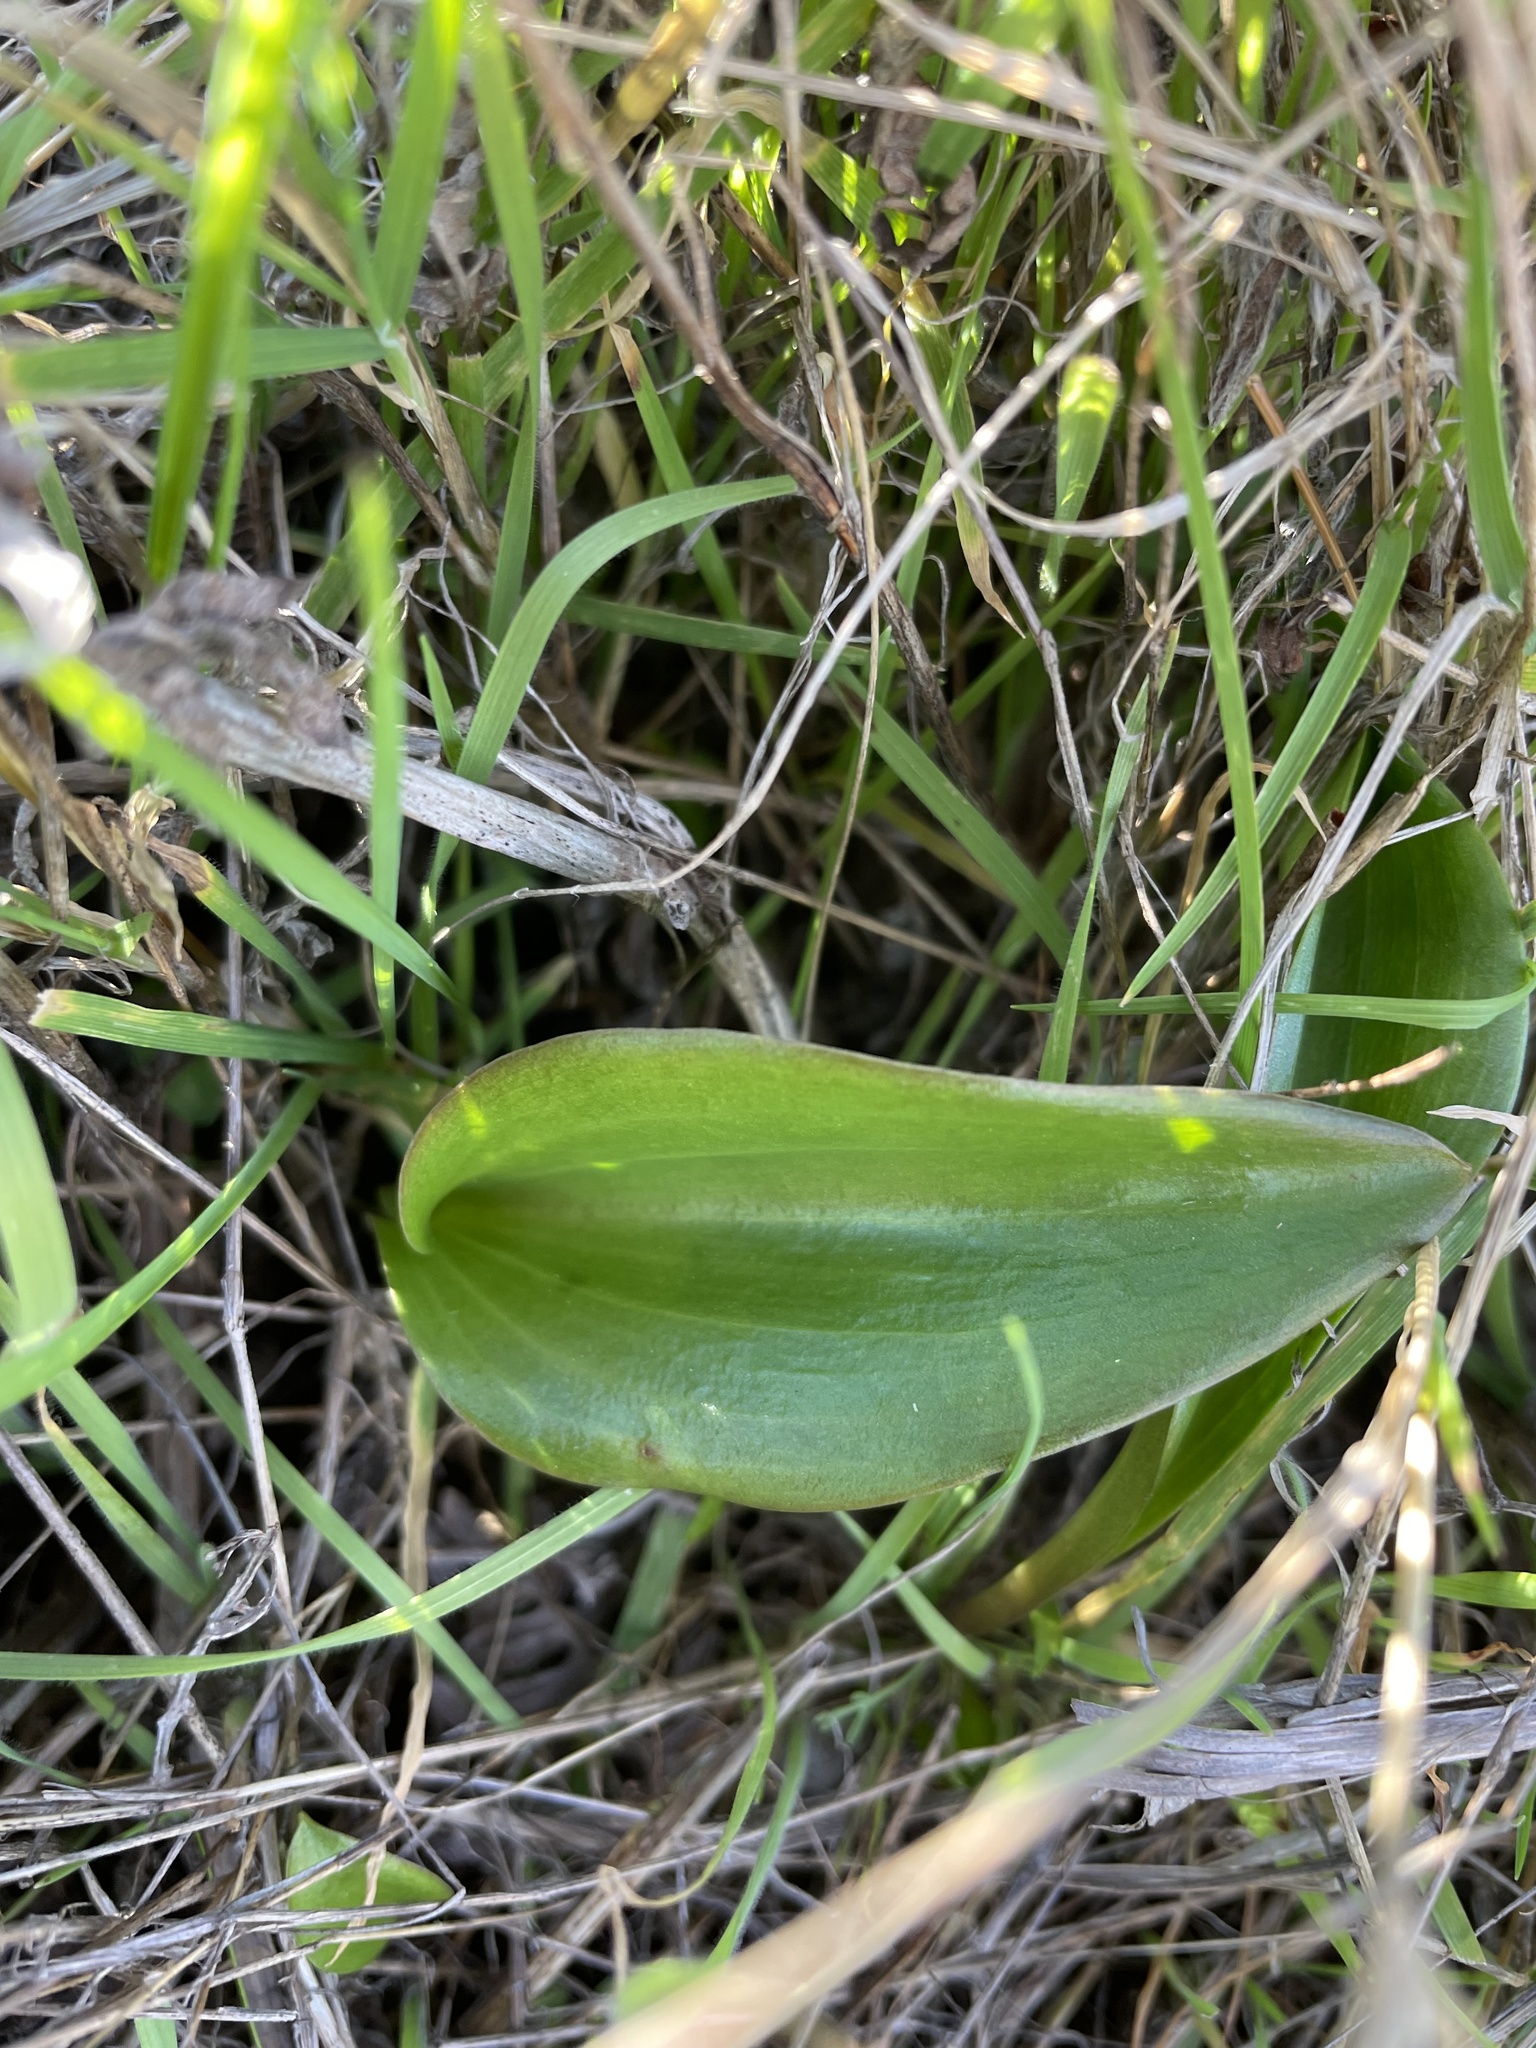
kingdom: Plantae
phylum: Tracheophyta
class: Liliopsida
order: Liliales
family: Liliaceae
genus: Fritillaria
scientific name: Fritillaria affinis
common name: Ojai fritillary
